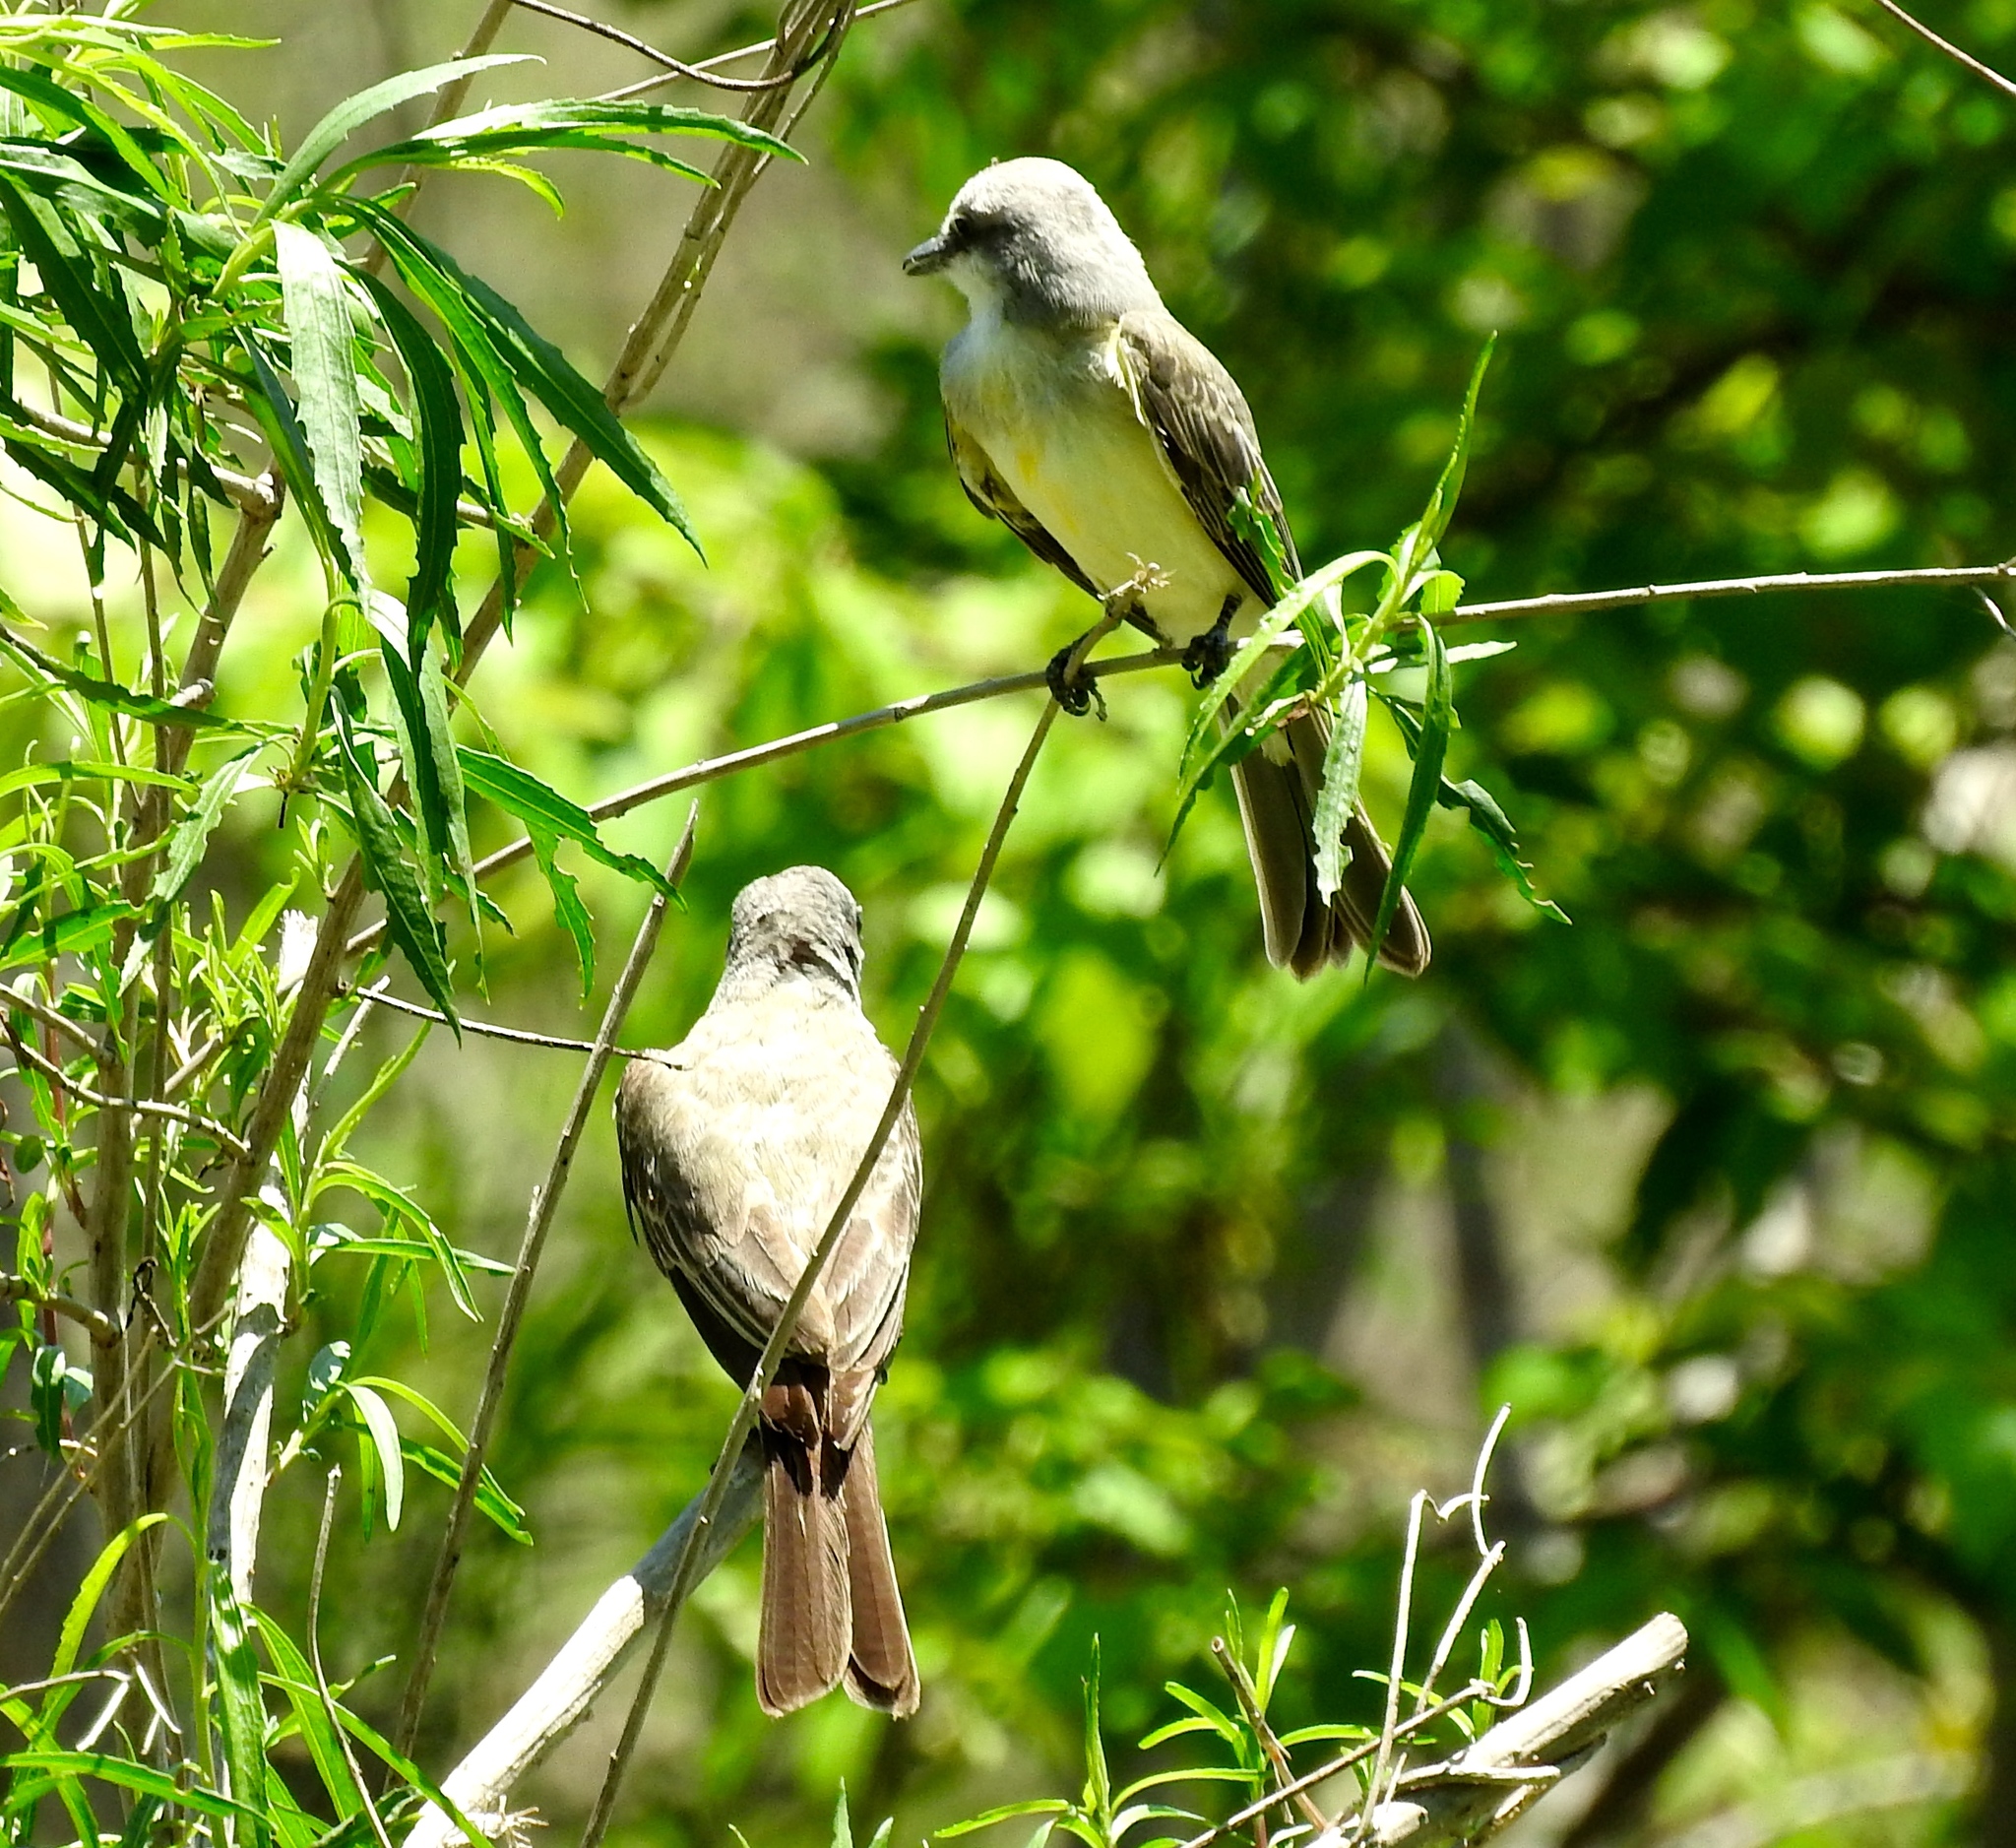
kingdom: Animalia
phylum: Chordata
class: Aves
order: Passeriformes
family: Tyrannidae
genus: Tyrannus
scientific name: Tyrannus melancholicus
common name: Tropical kingbird
